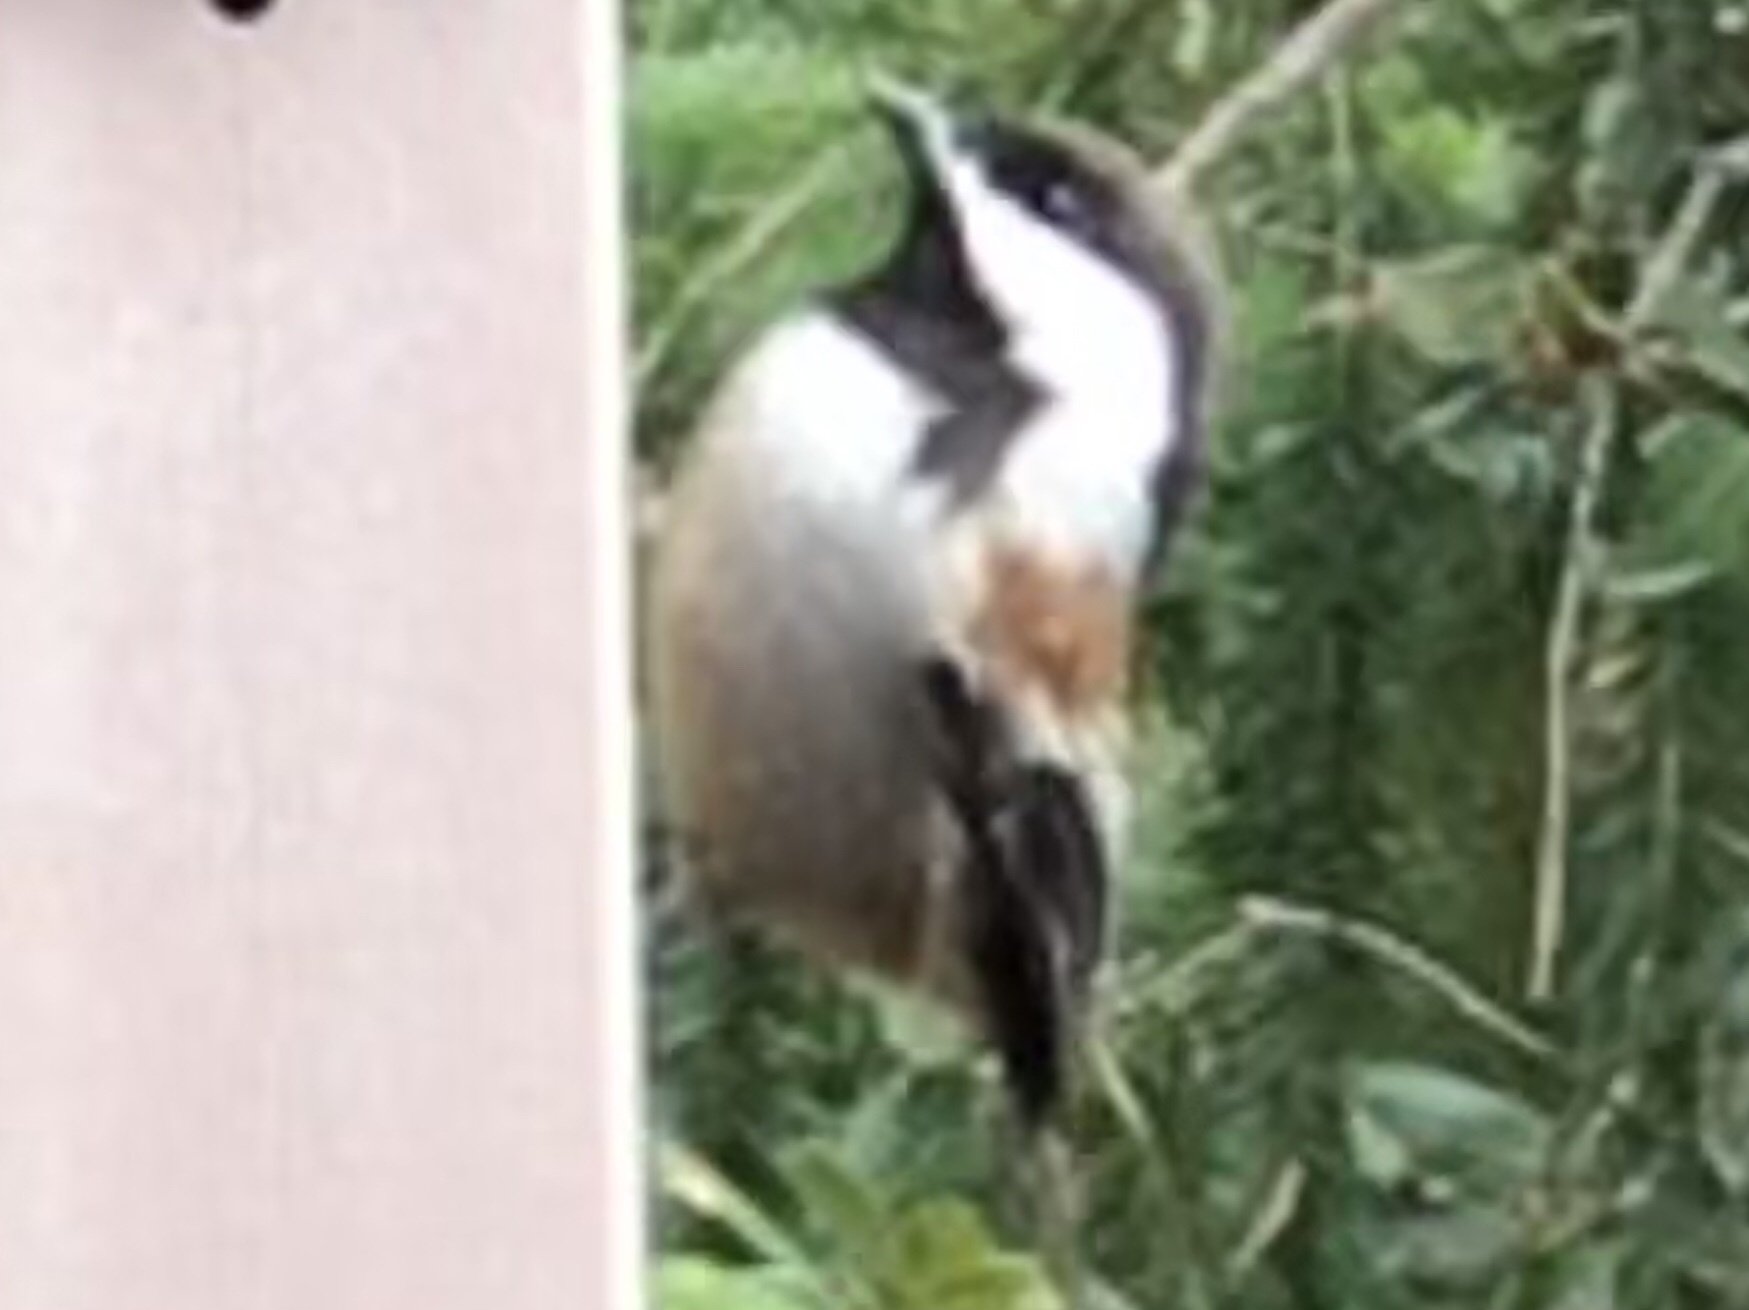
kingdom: Animalia
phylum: Chordata
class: Aves
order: Passeriformes
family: Paridae
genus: Poecile
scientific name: Poecile rufescens
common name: Chestnut-backed chickadee
